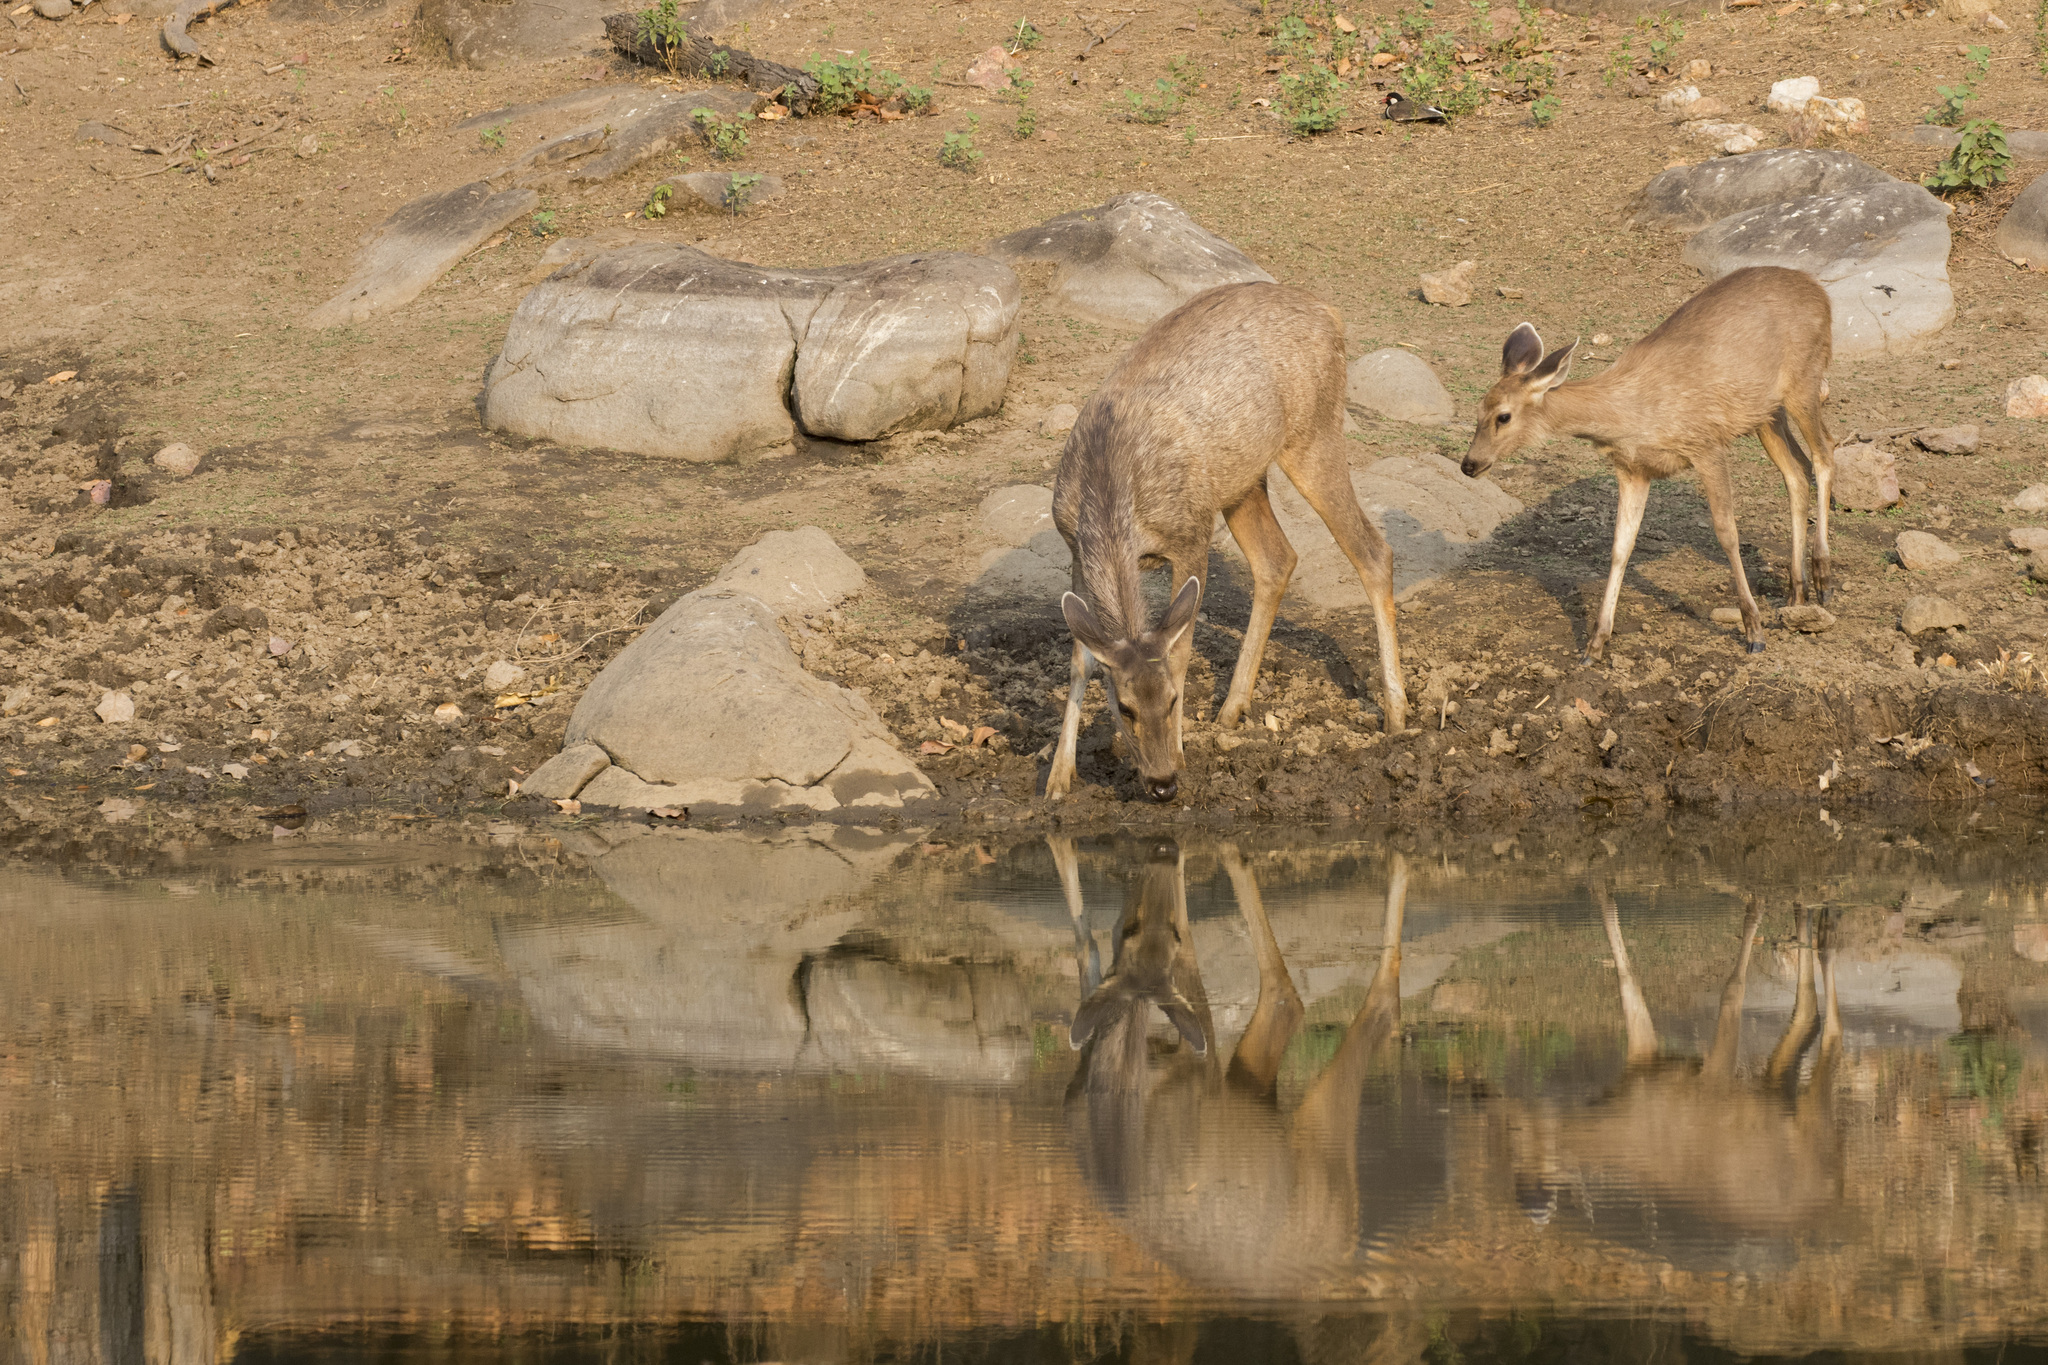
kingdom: Animalia
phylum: Chordata
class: Mammalia
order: Artiodactyla
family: Cervidae
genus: Rusa
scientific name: Rusa unicolor
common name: Sambar
